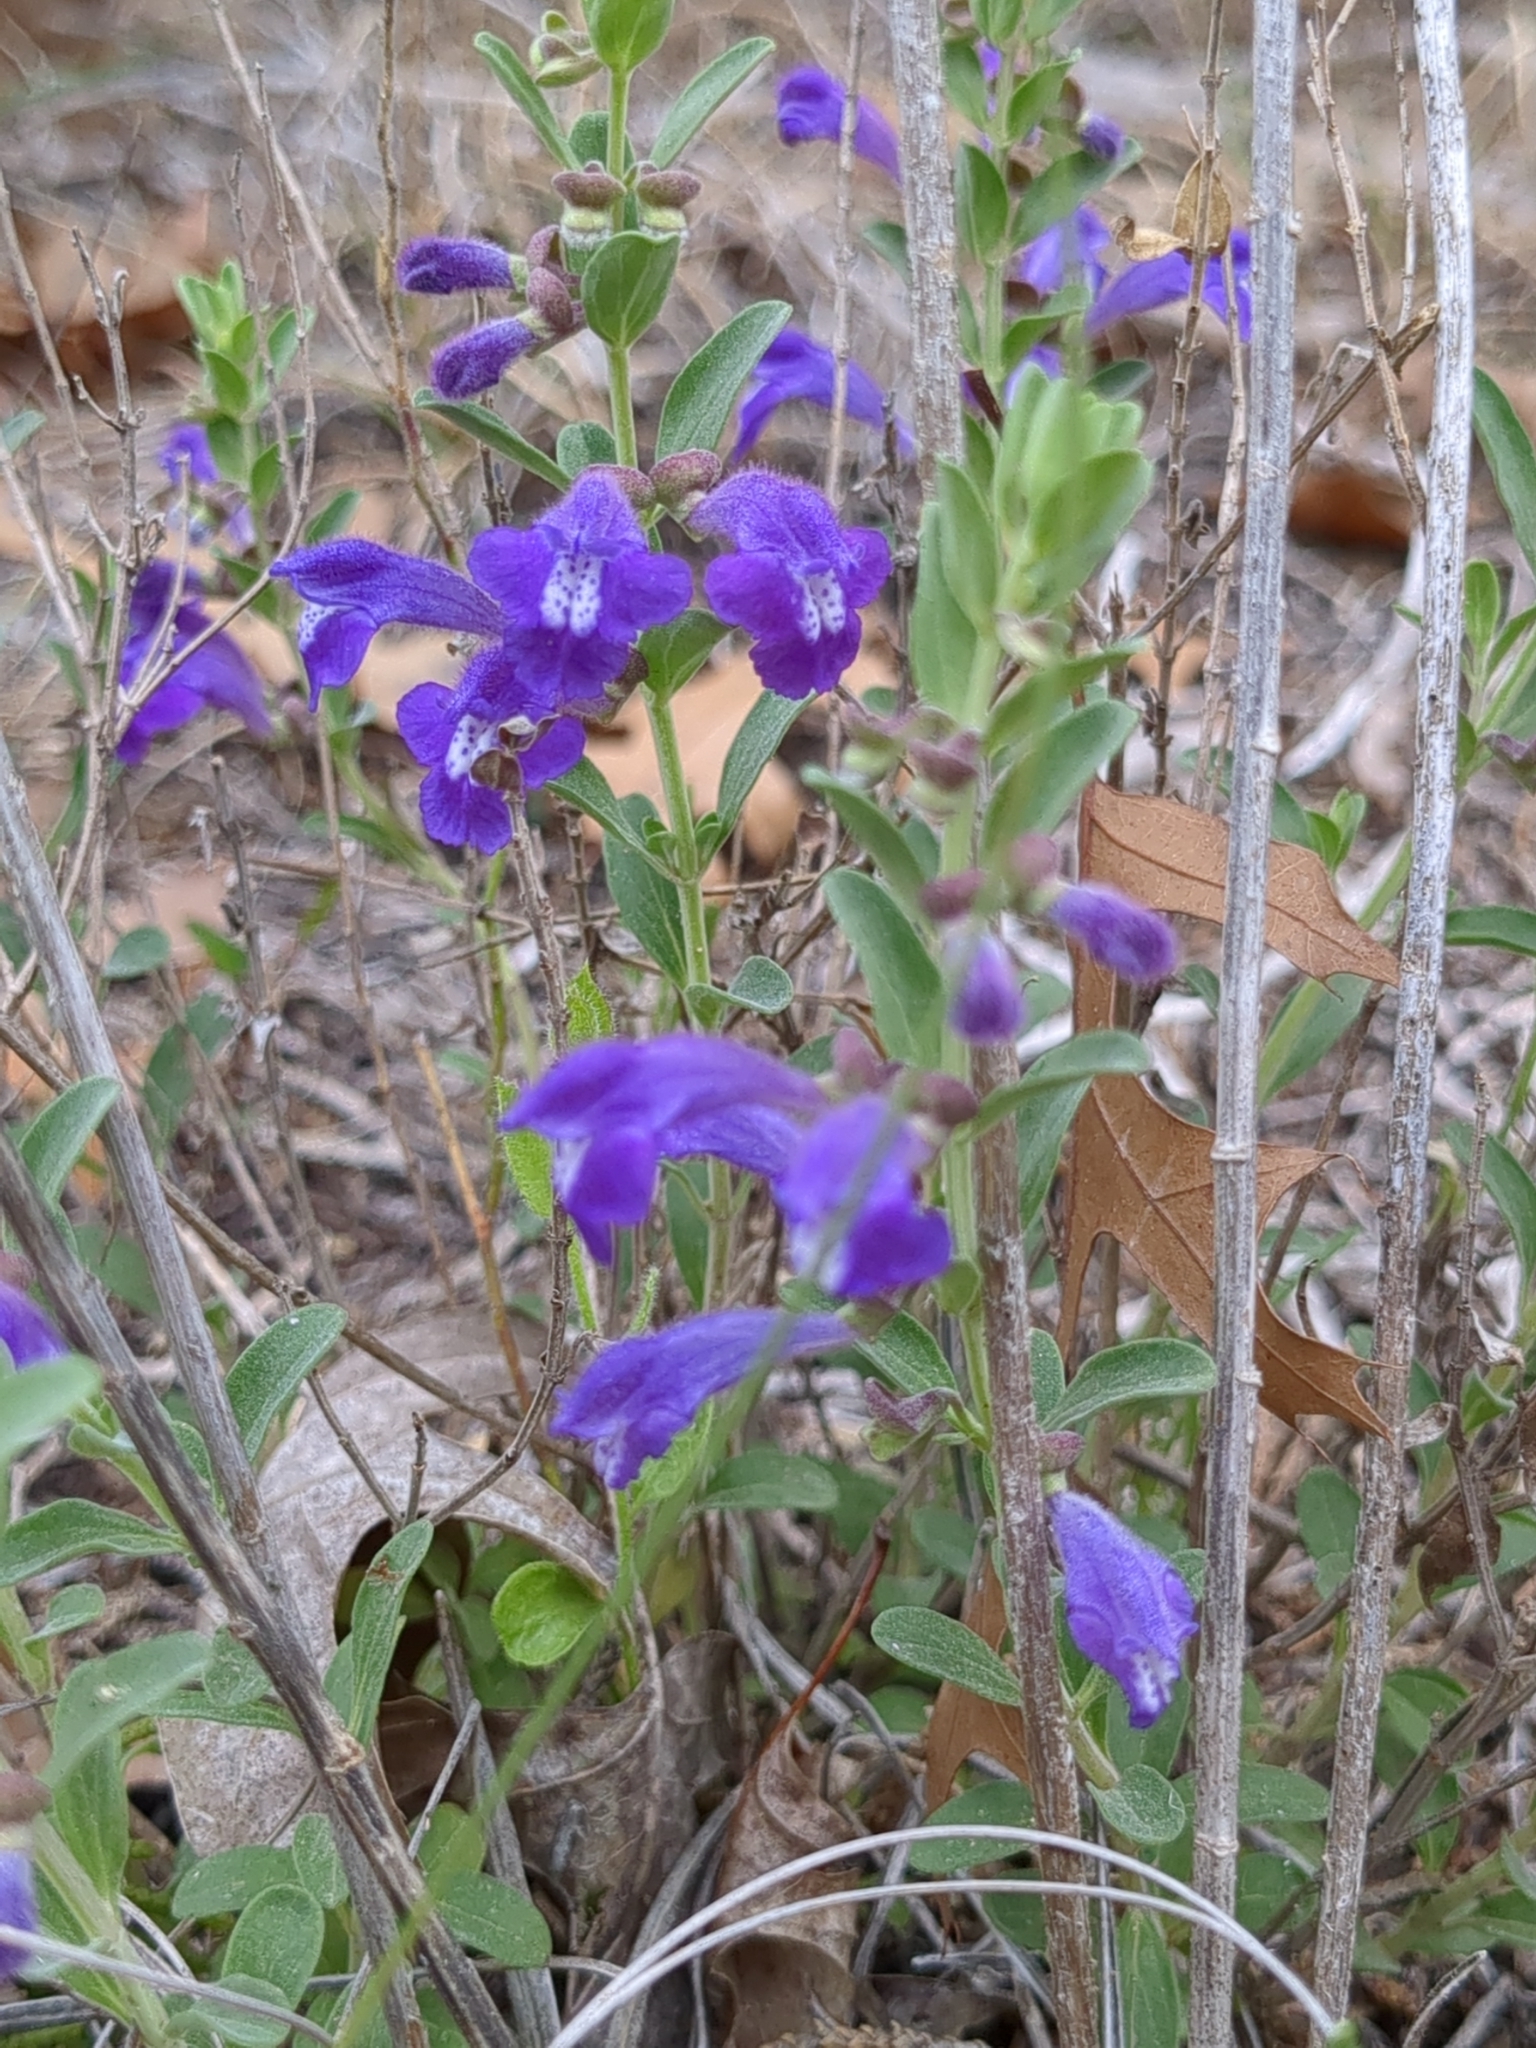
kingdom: Plantae
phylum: Tracheophyta
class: Magnoliopsida
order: Lamiales
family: Lamiaceae
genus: Scutellaria
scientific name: Scutellaria wrightii
